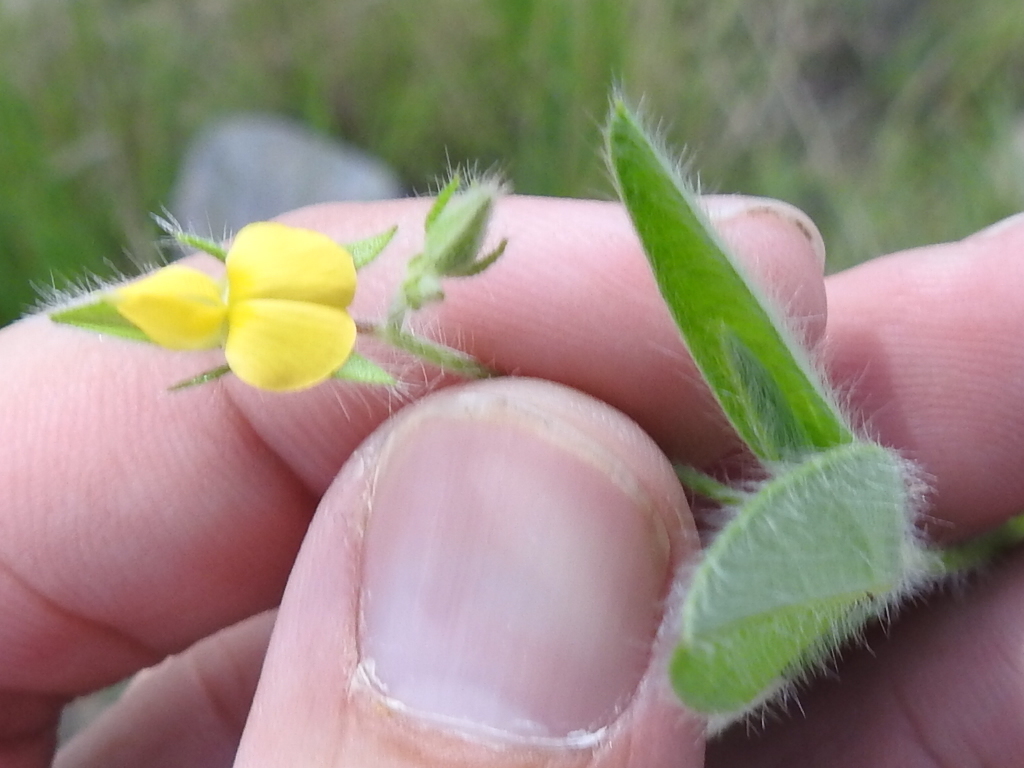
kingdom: Plantae
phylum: Tracheophyta
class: Magnoliopsida
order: Fabales
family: Fabaceae
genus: Crotalaria
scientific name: Crotalaria sagittalis
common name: Arrowhead rattlebox
